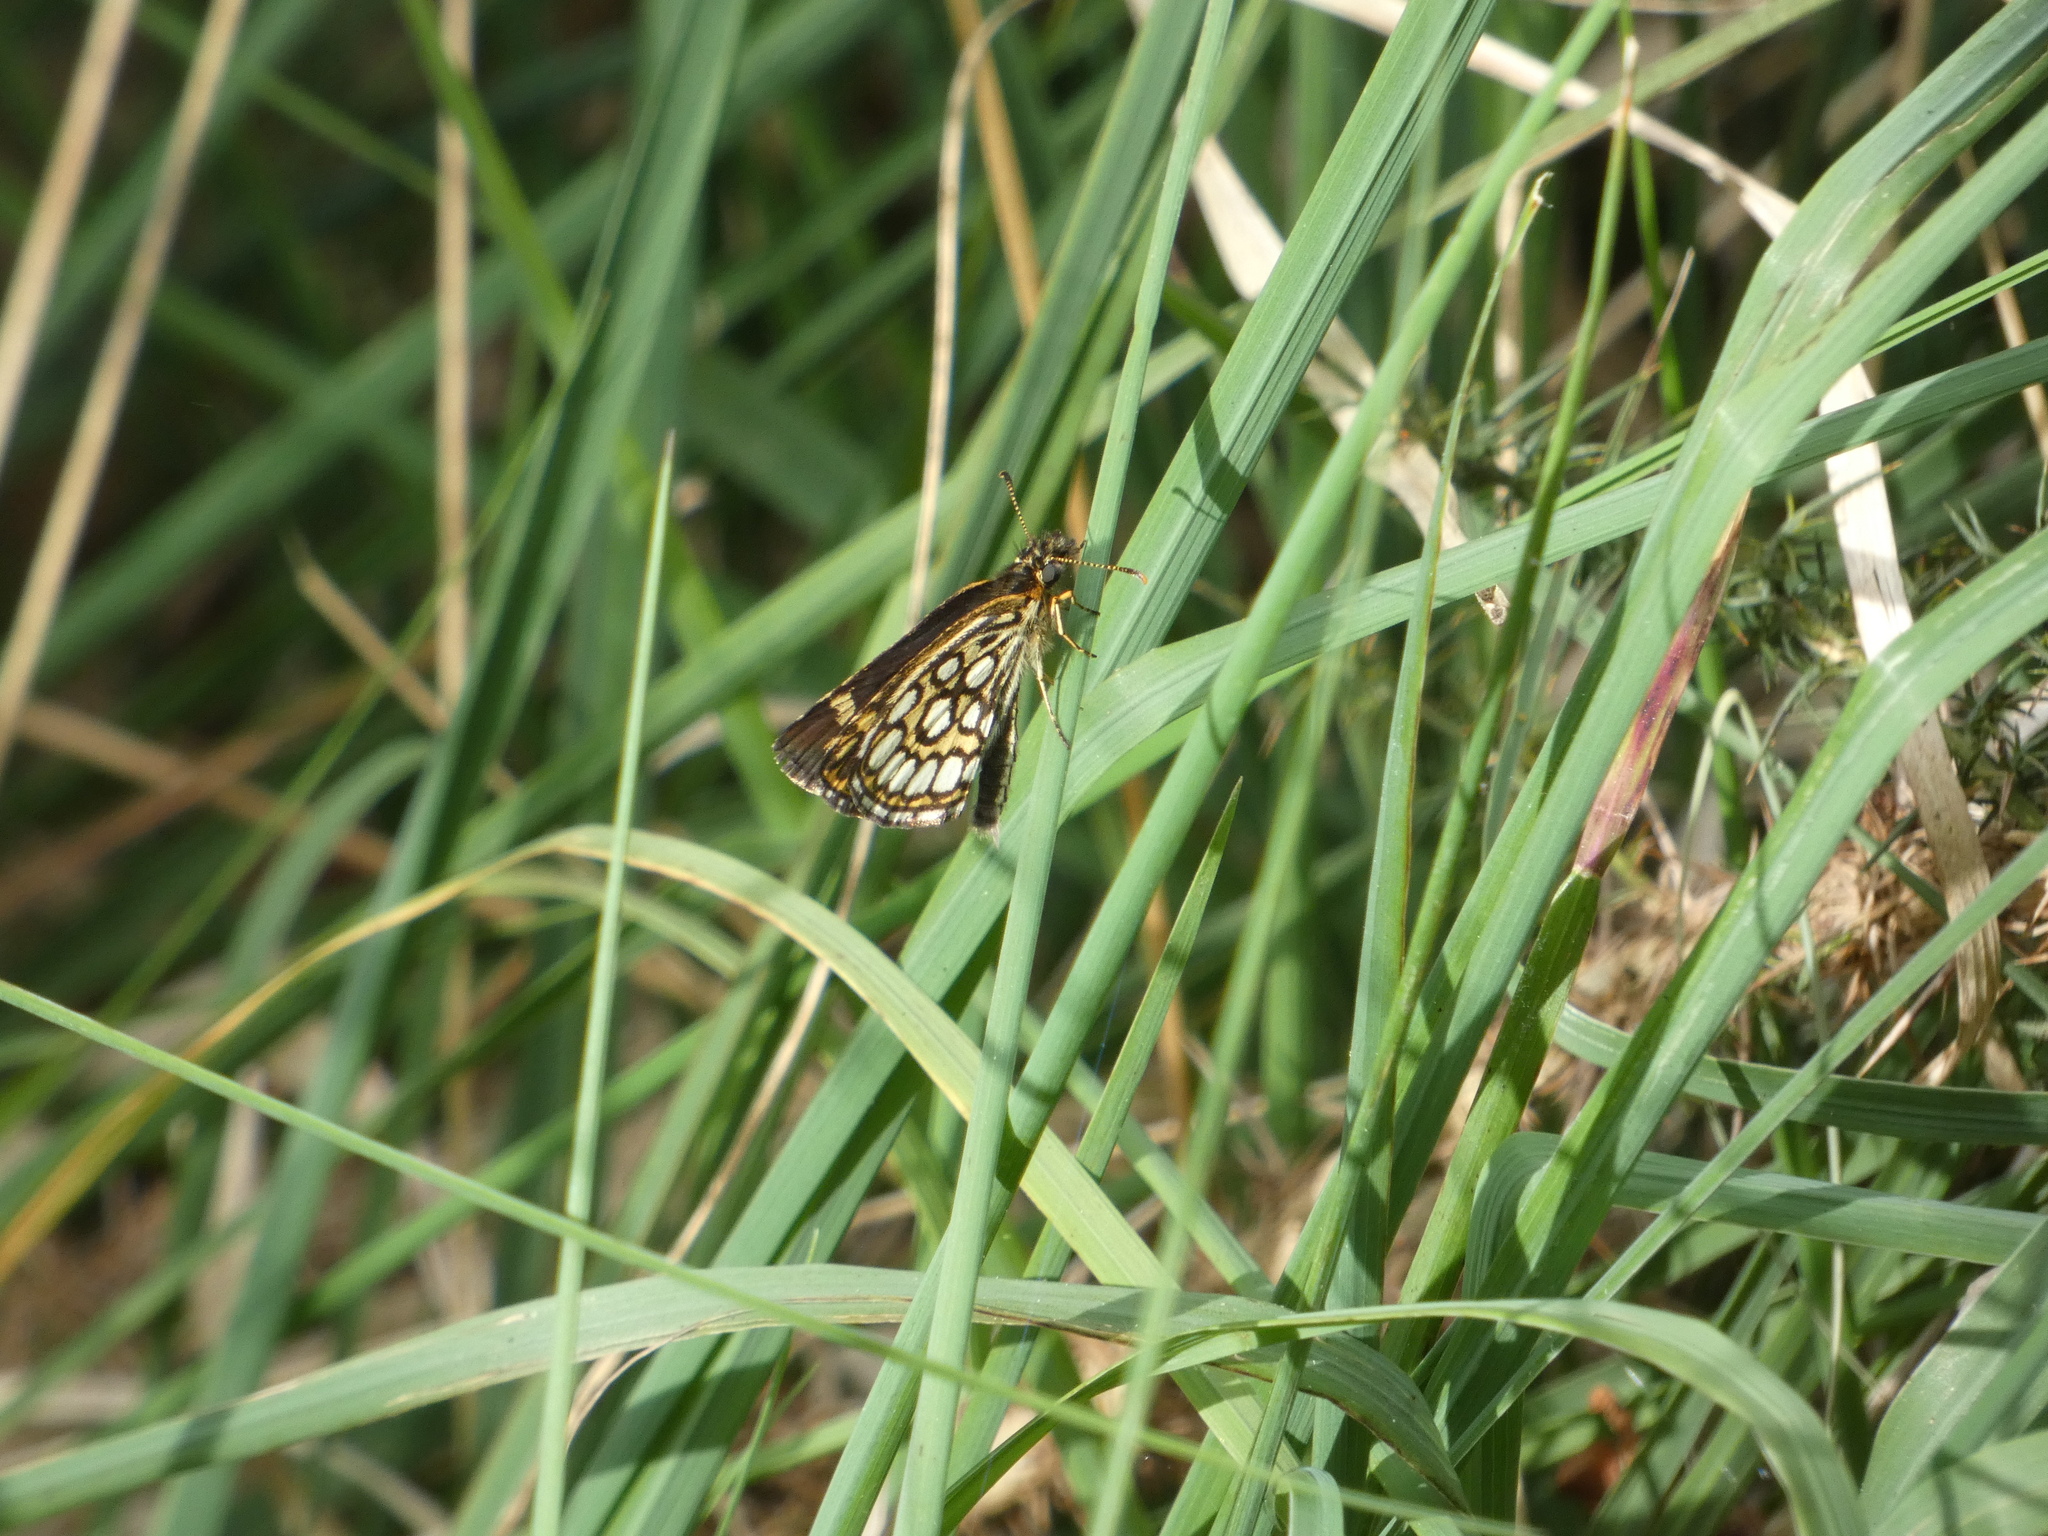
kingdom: Animalia
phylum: Arthropoda
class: Insecta
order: Lepidoptera
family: Hesperiidae
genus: Heteropterus
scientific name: Heteropterus morpheus
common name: Large chequered skipper
